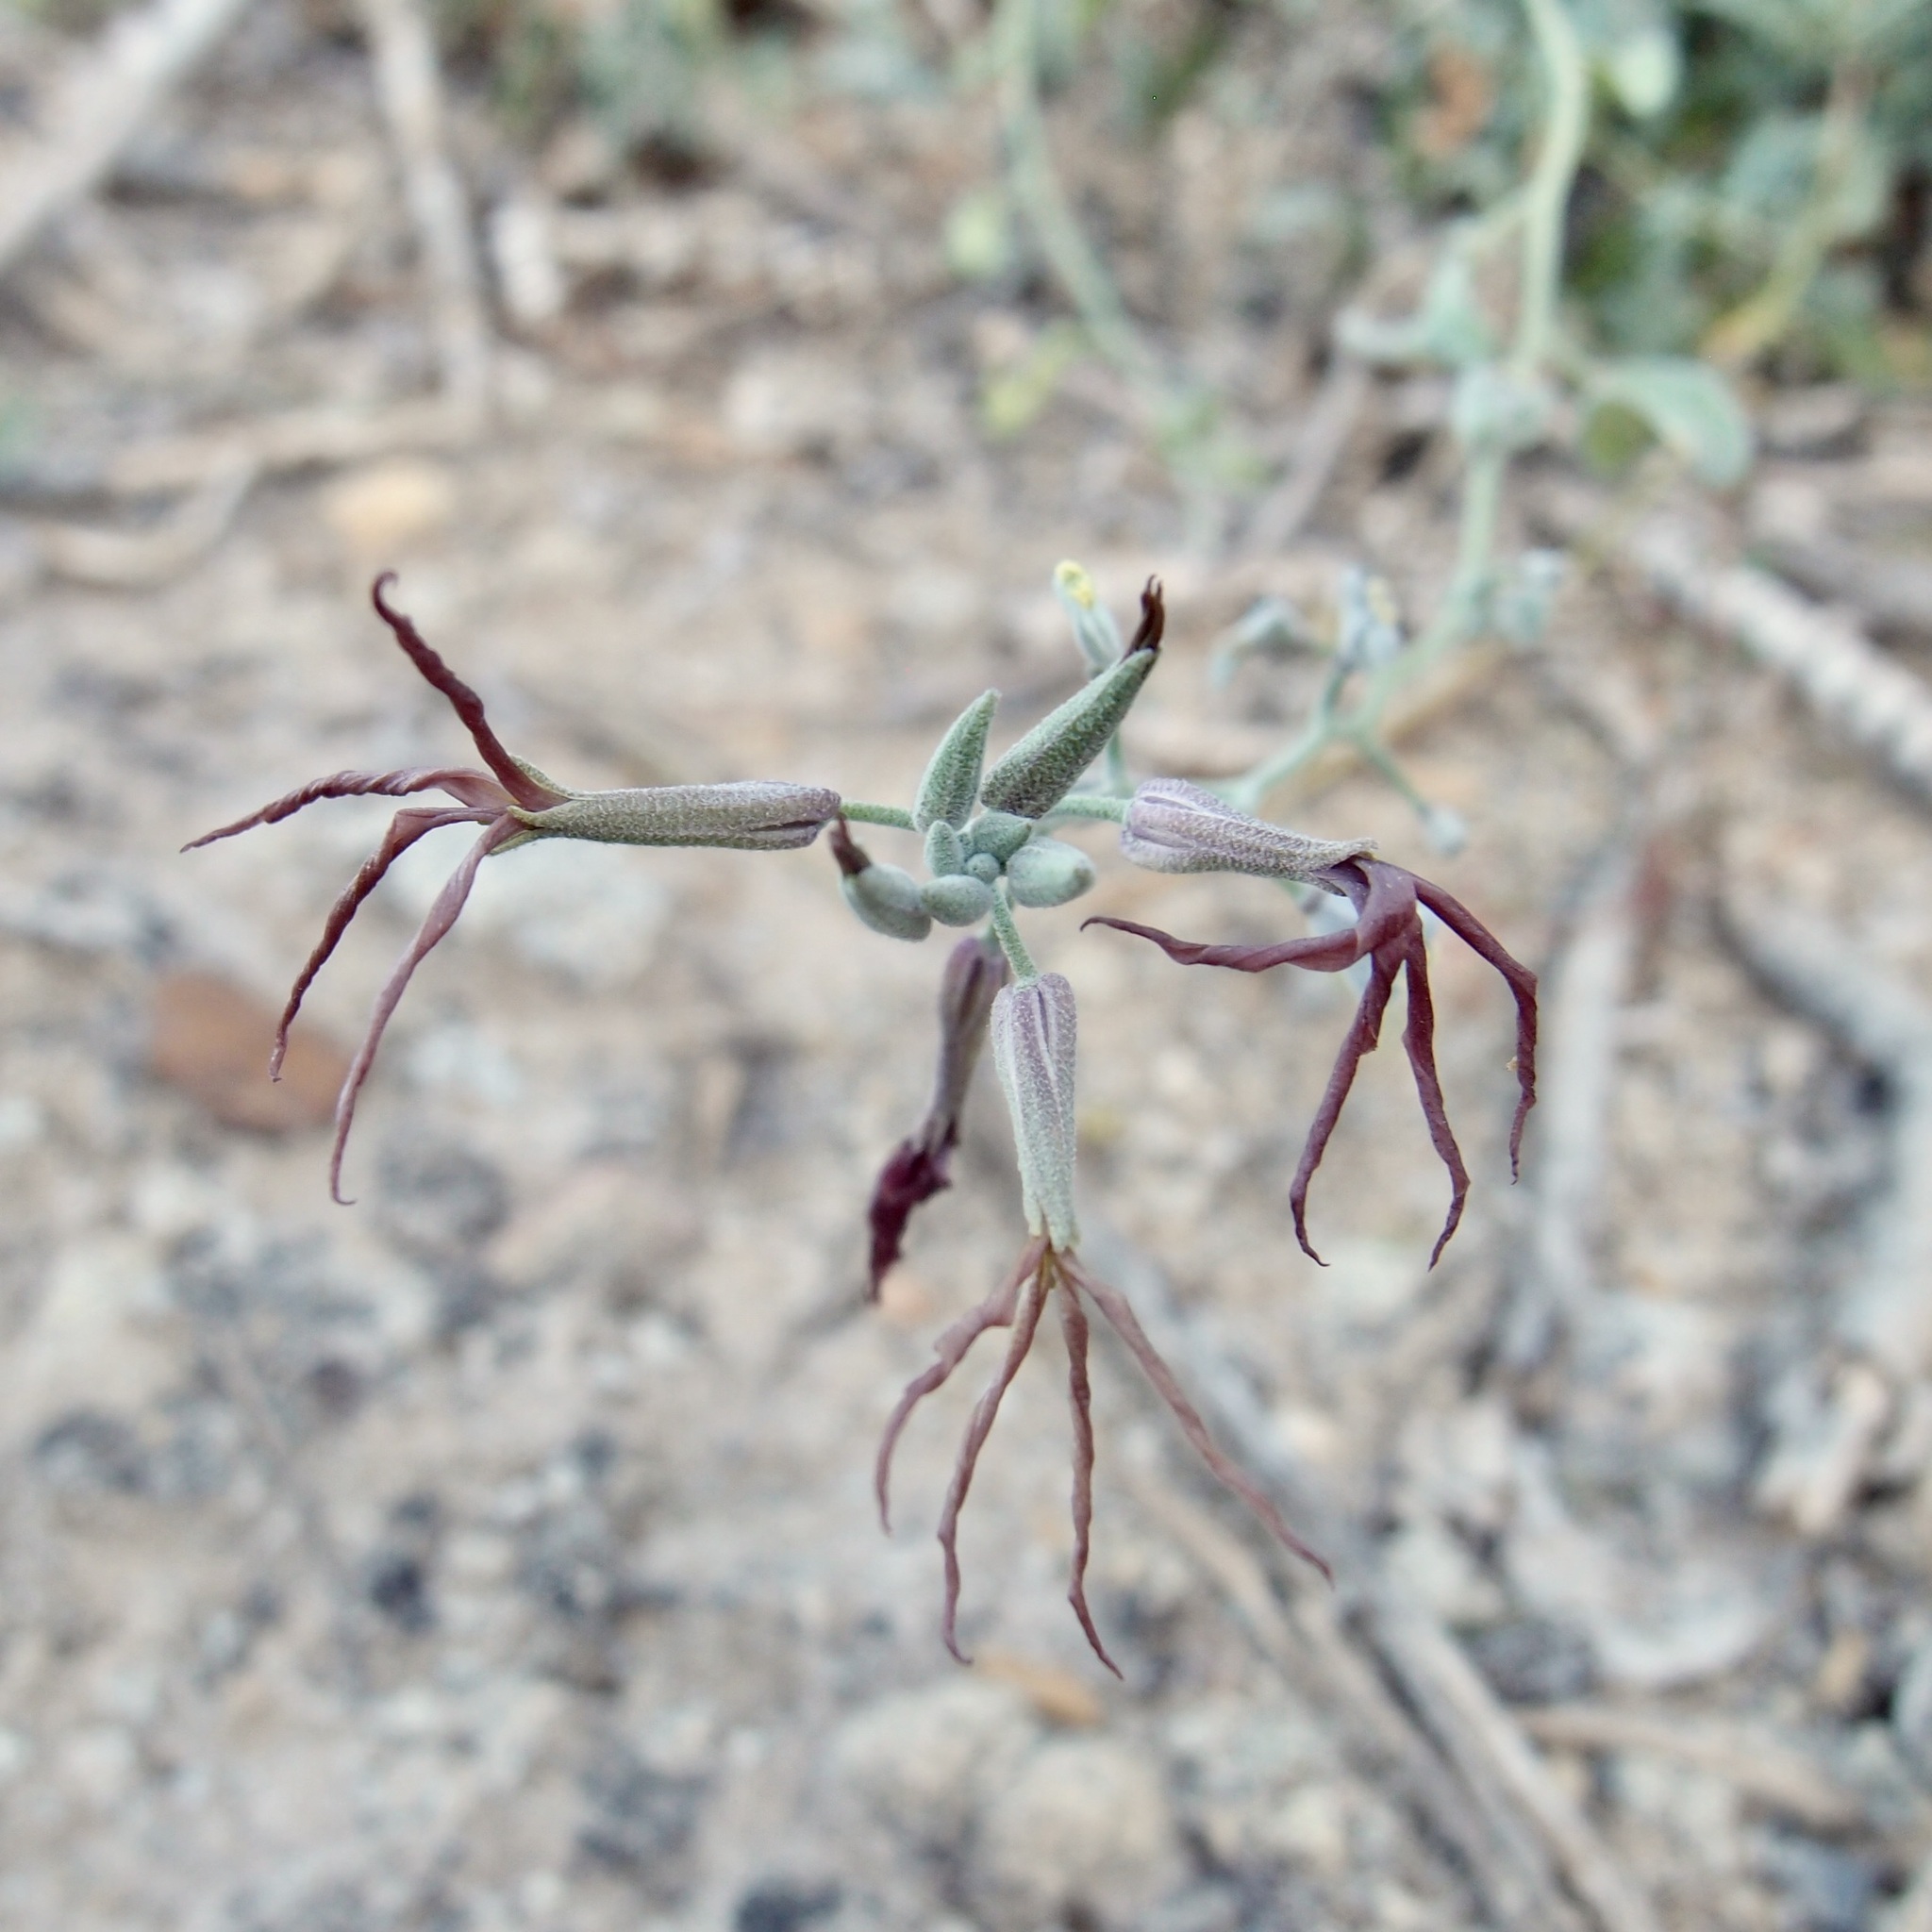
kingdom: Plantae
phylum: Tracheophyta
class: Magnoliopsida
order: Brassicales
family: Brassicaceae
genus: Lyrocarpa
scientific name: Lyrocarpa coulteri
